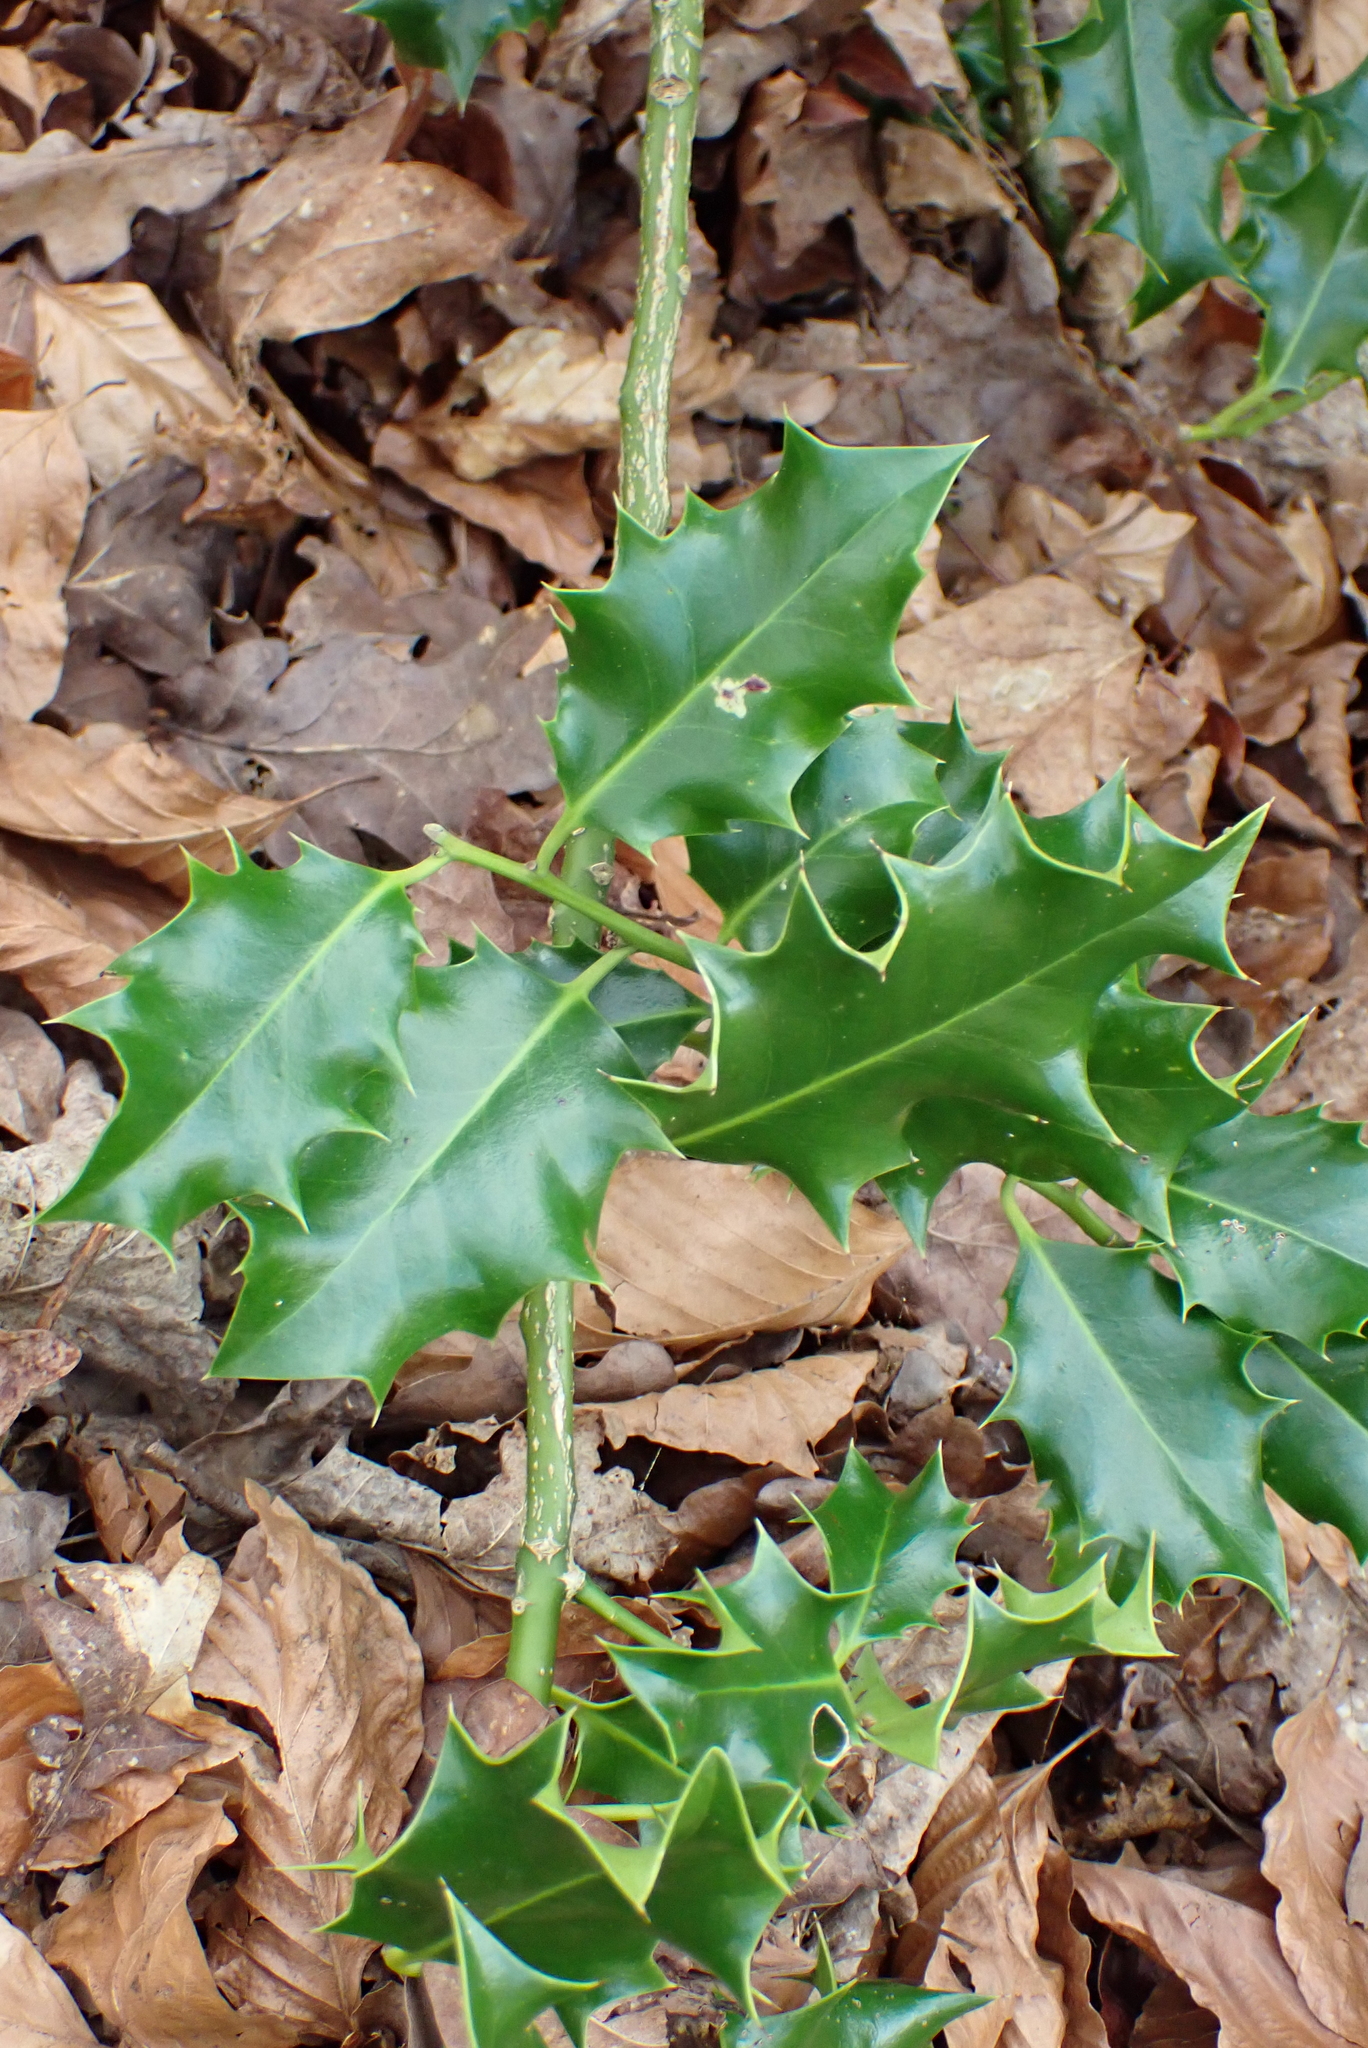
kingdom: Plantae
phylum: Tracheophyta
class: Magnoliopsida
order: Aquifoliales
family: Aquifoliaceae
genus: Ilex
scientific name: Ilex aquifolium
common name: English holly
